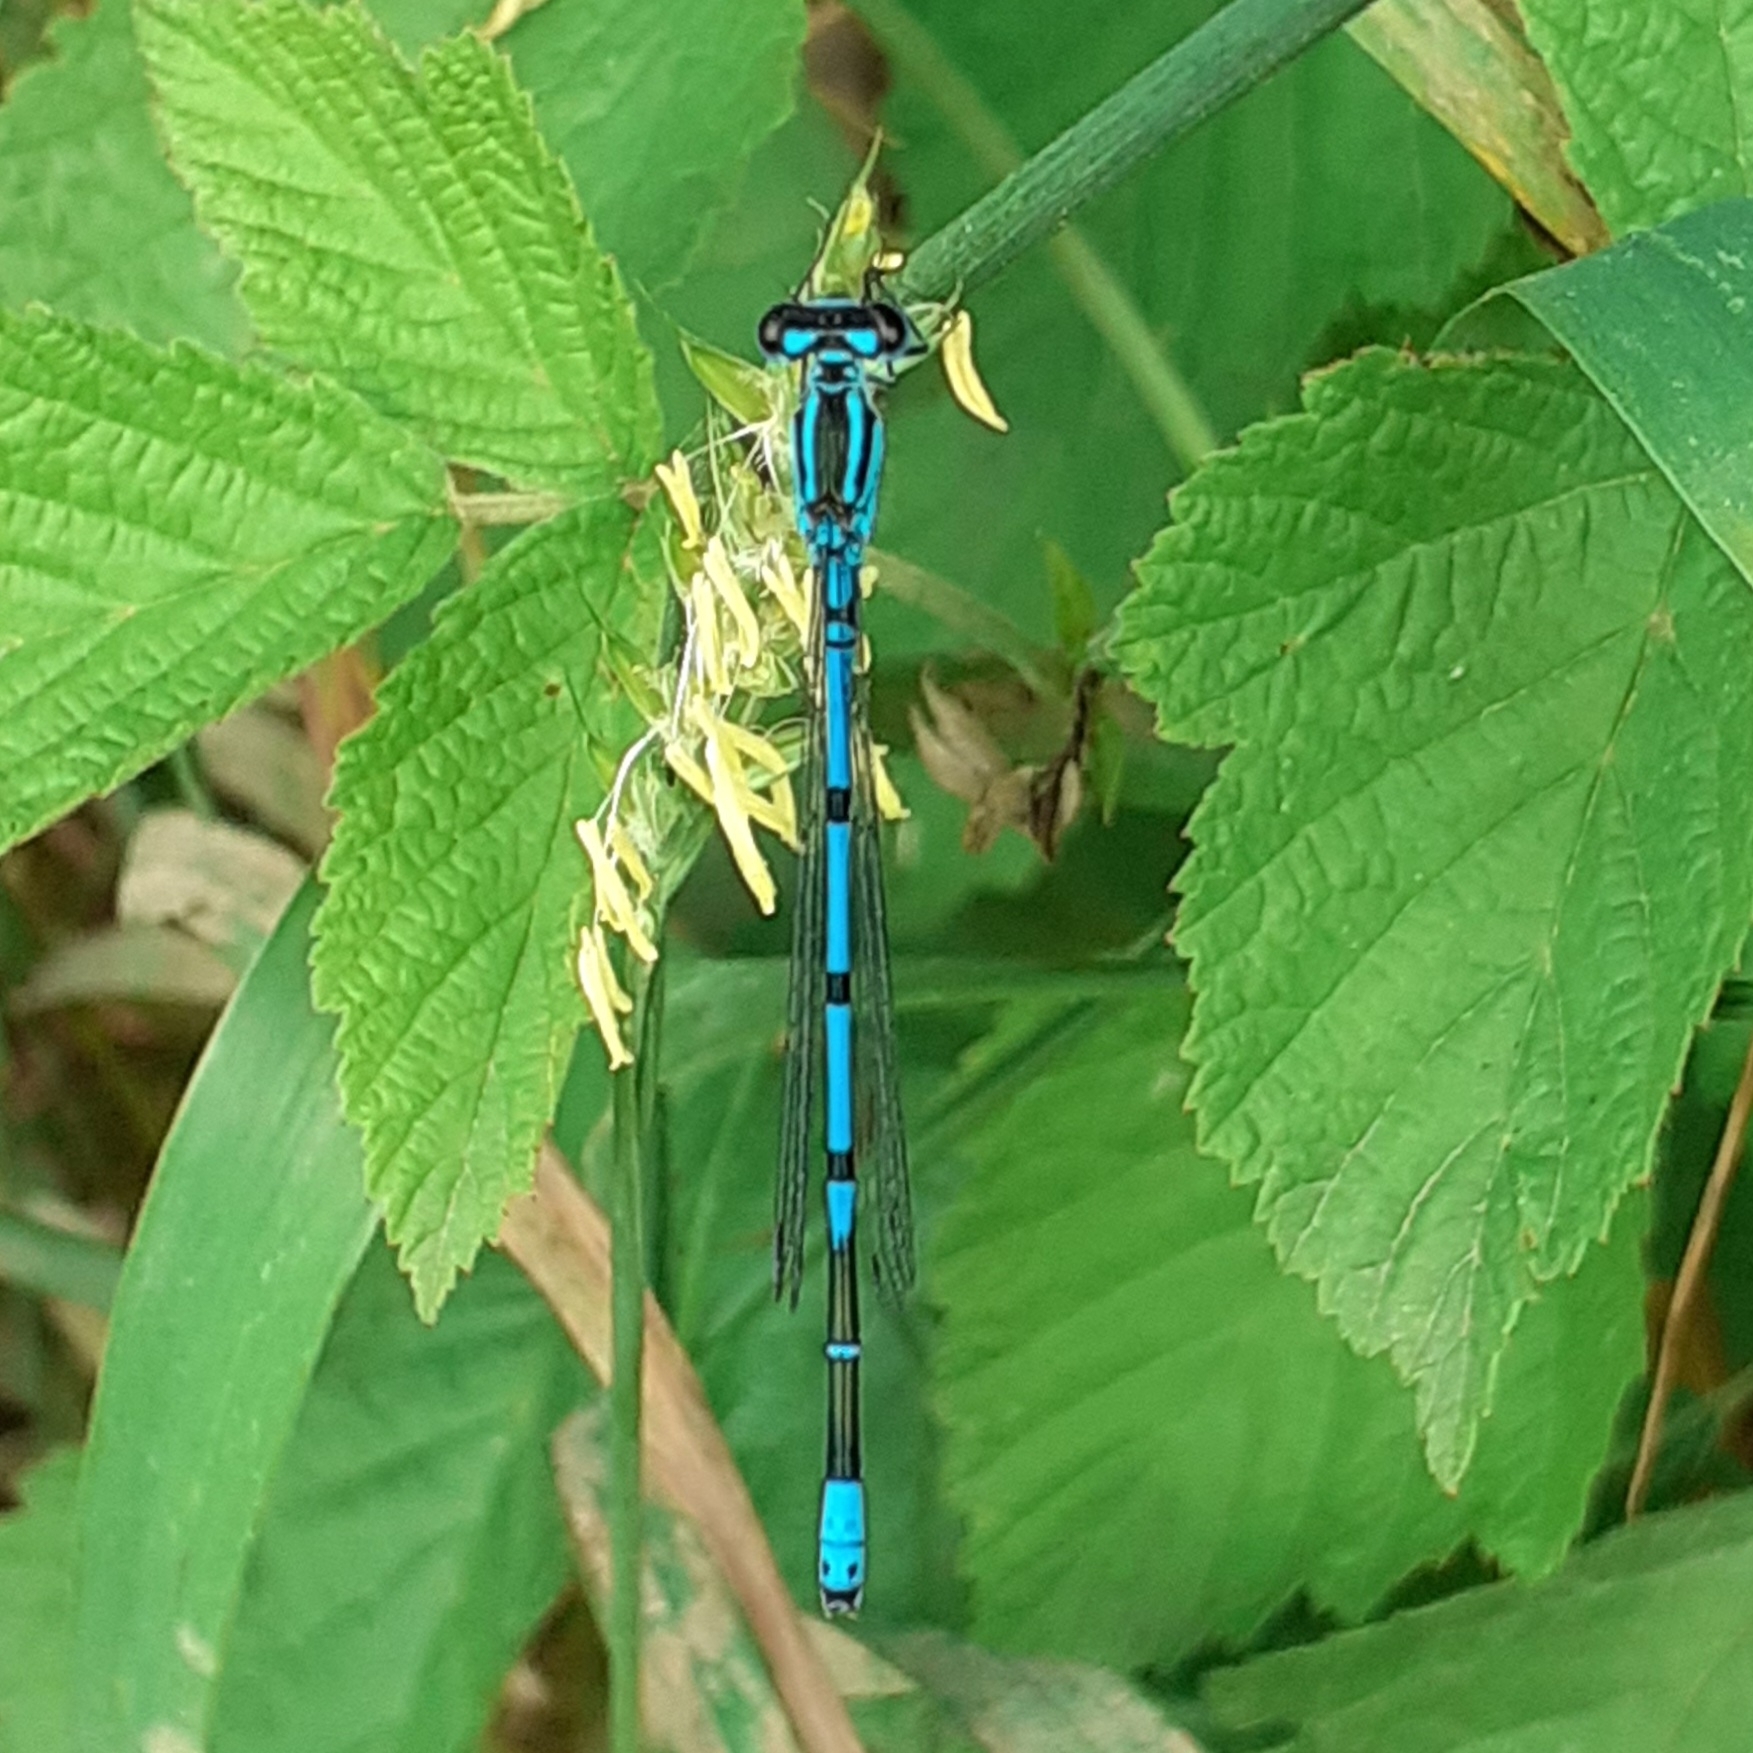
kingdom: Animalia
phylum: Arthropoda
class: Insecta
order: Odonata
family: Coenagrionidae
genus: Coenagrion
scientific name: Coenagrion puella
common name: Azure damselfly
